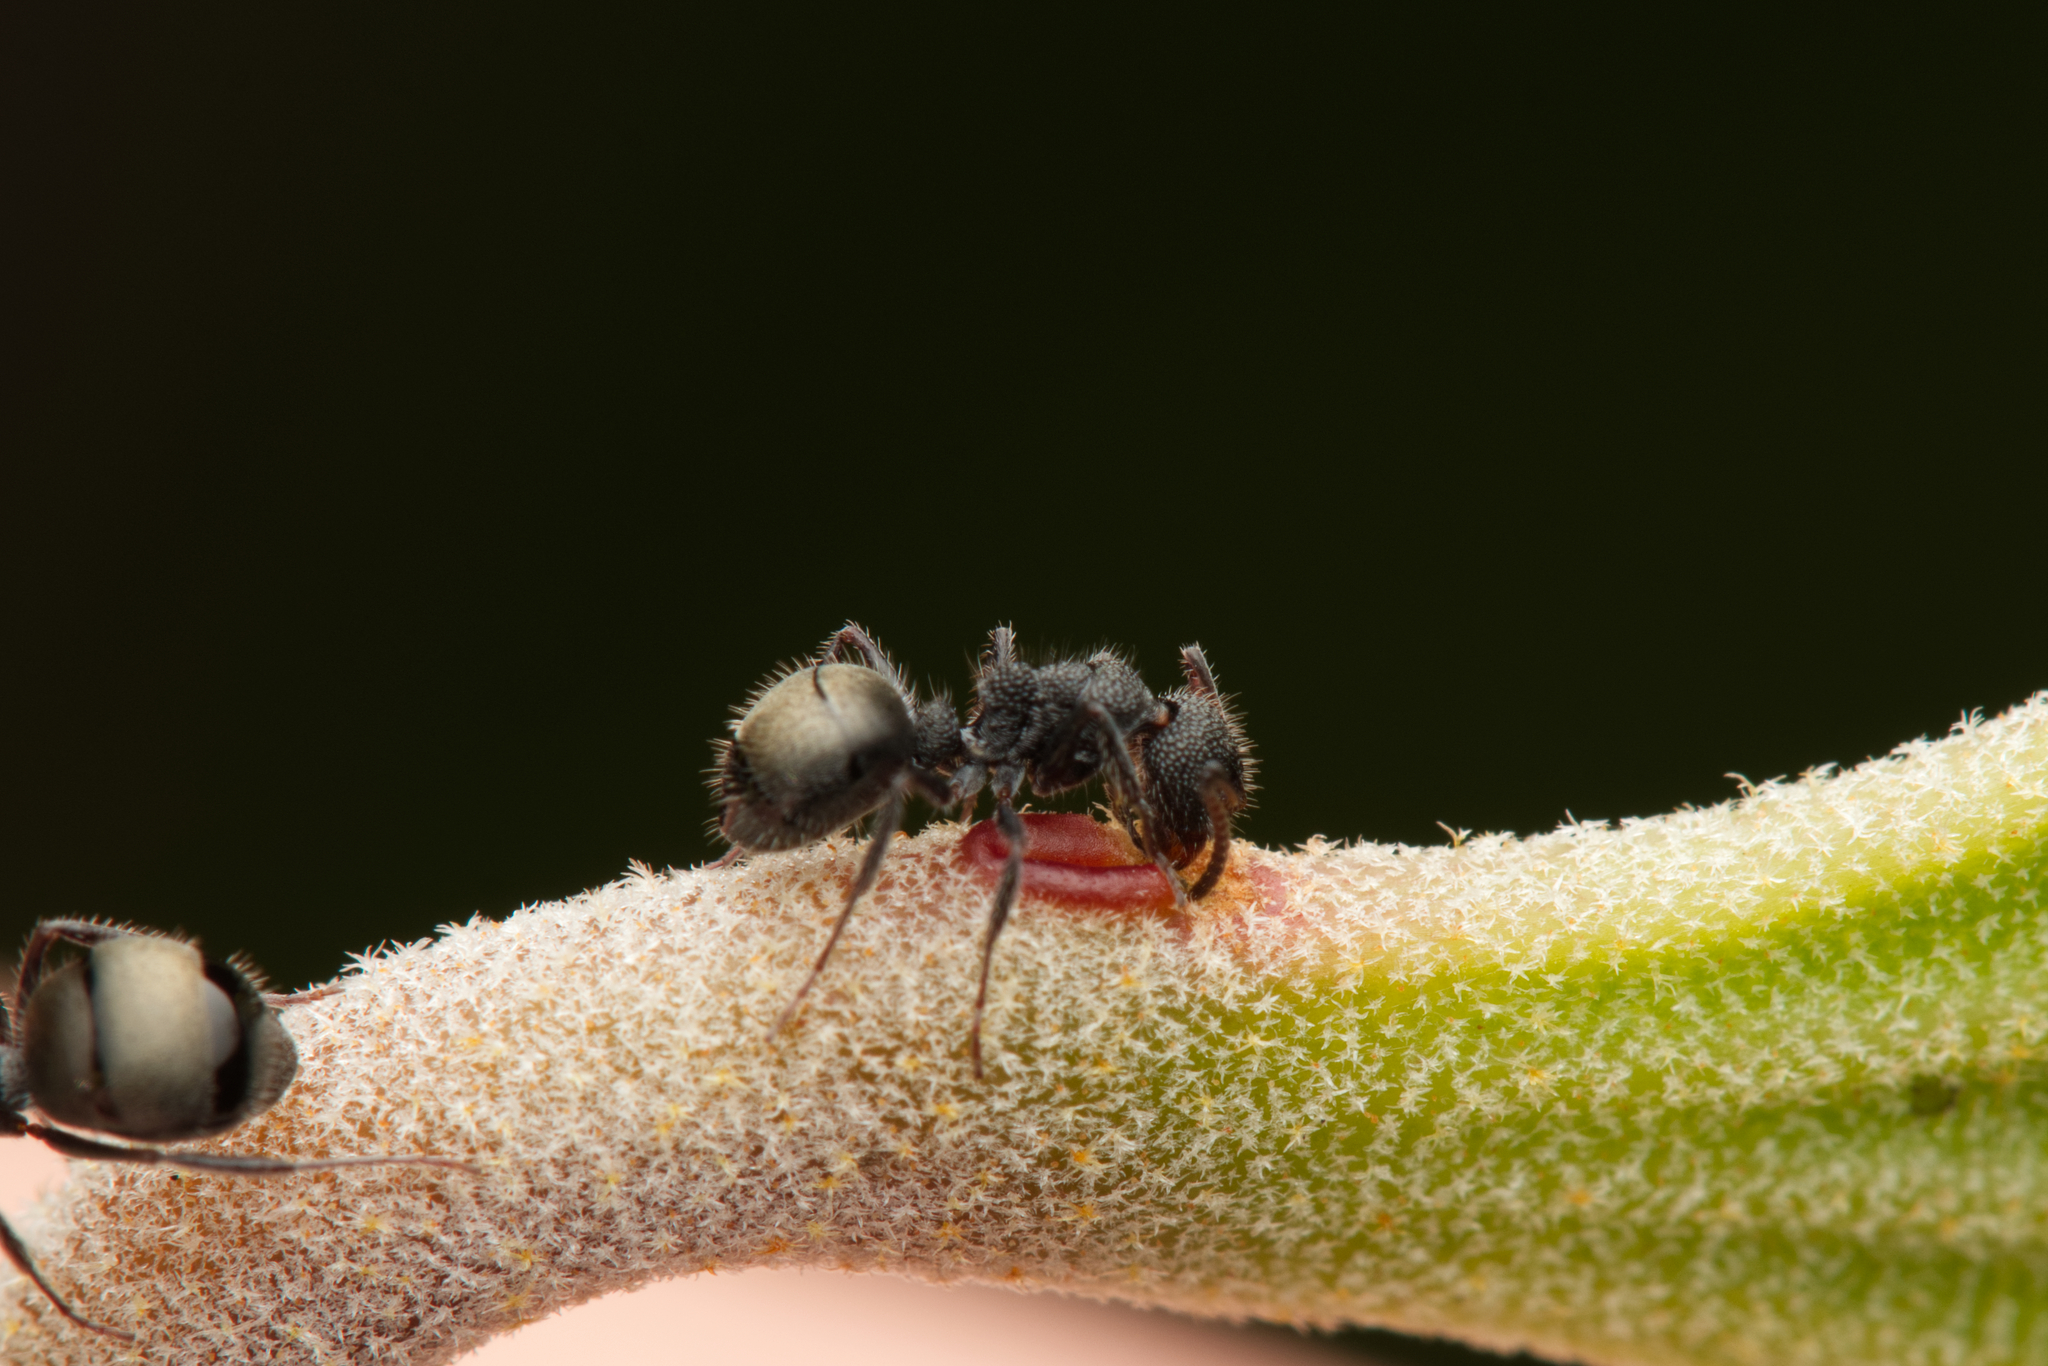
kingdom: Animalia
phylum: Arthropoda
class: Insecta
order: Hymenoptera
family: Formicidae
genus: Dolichoderus
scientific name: Dolichoderus scrobiculatus
